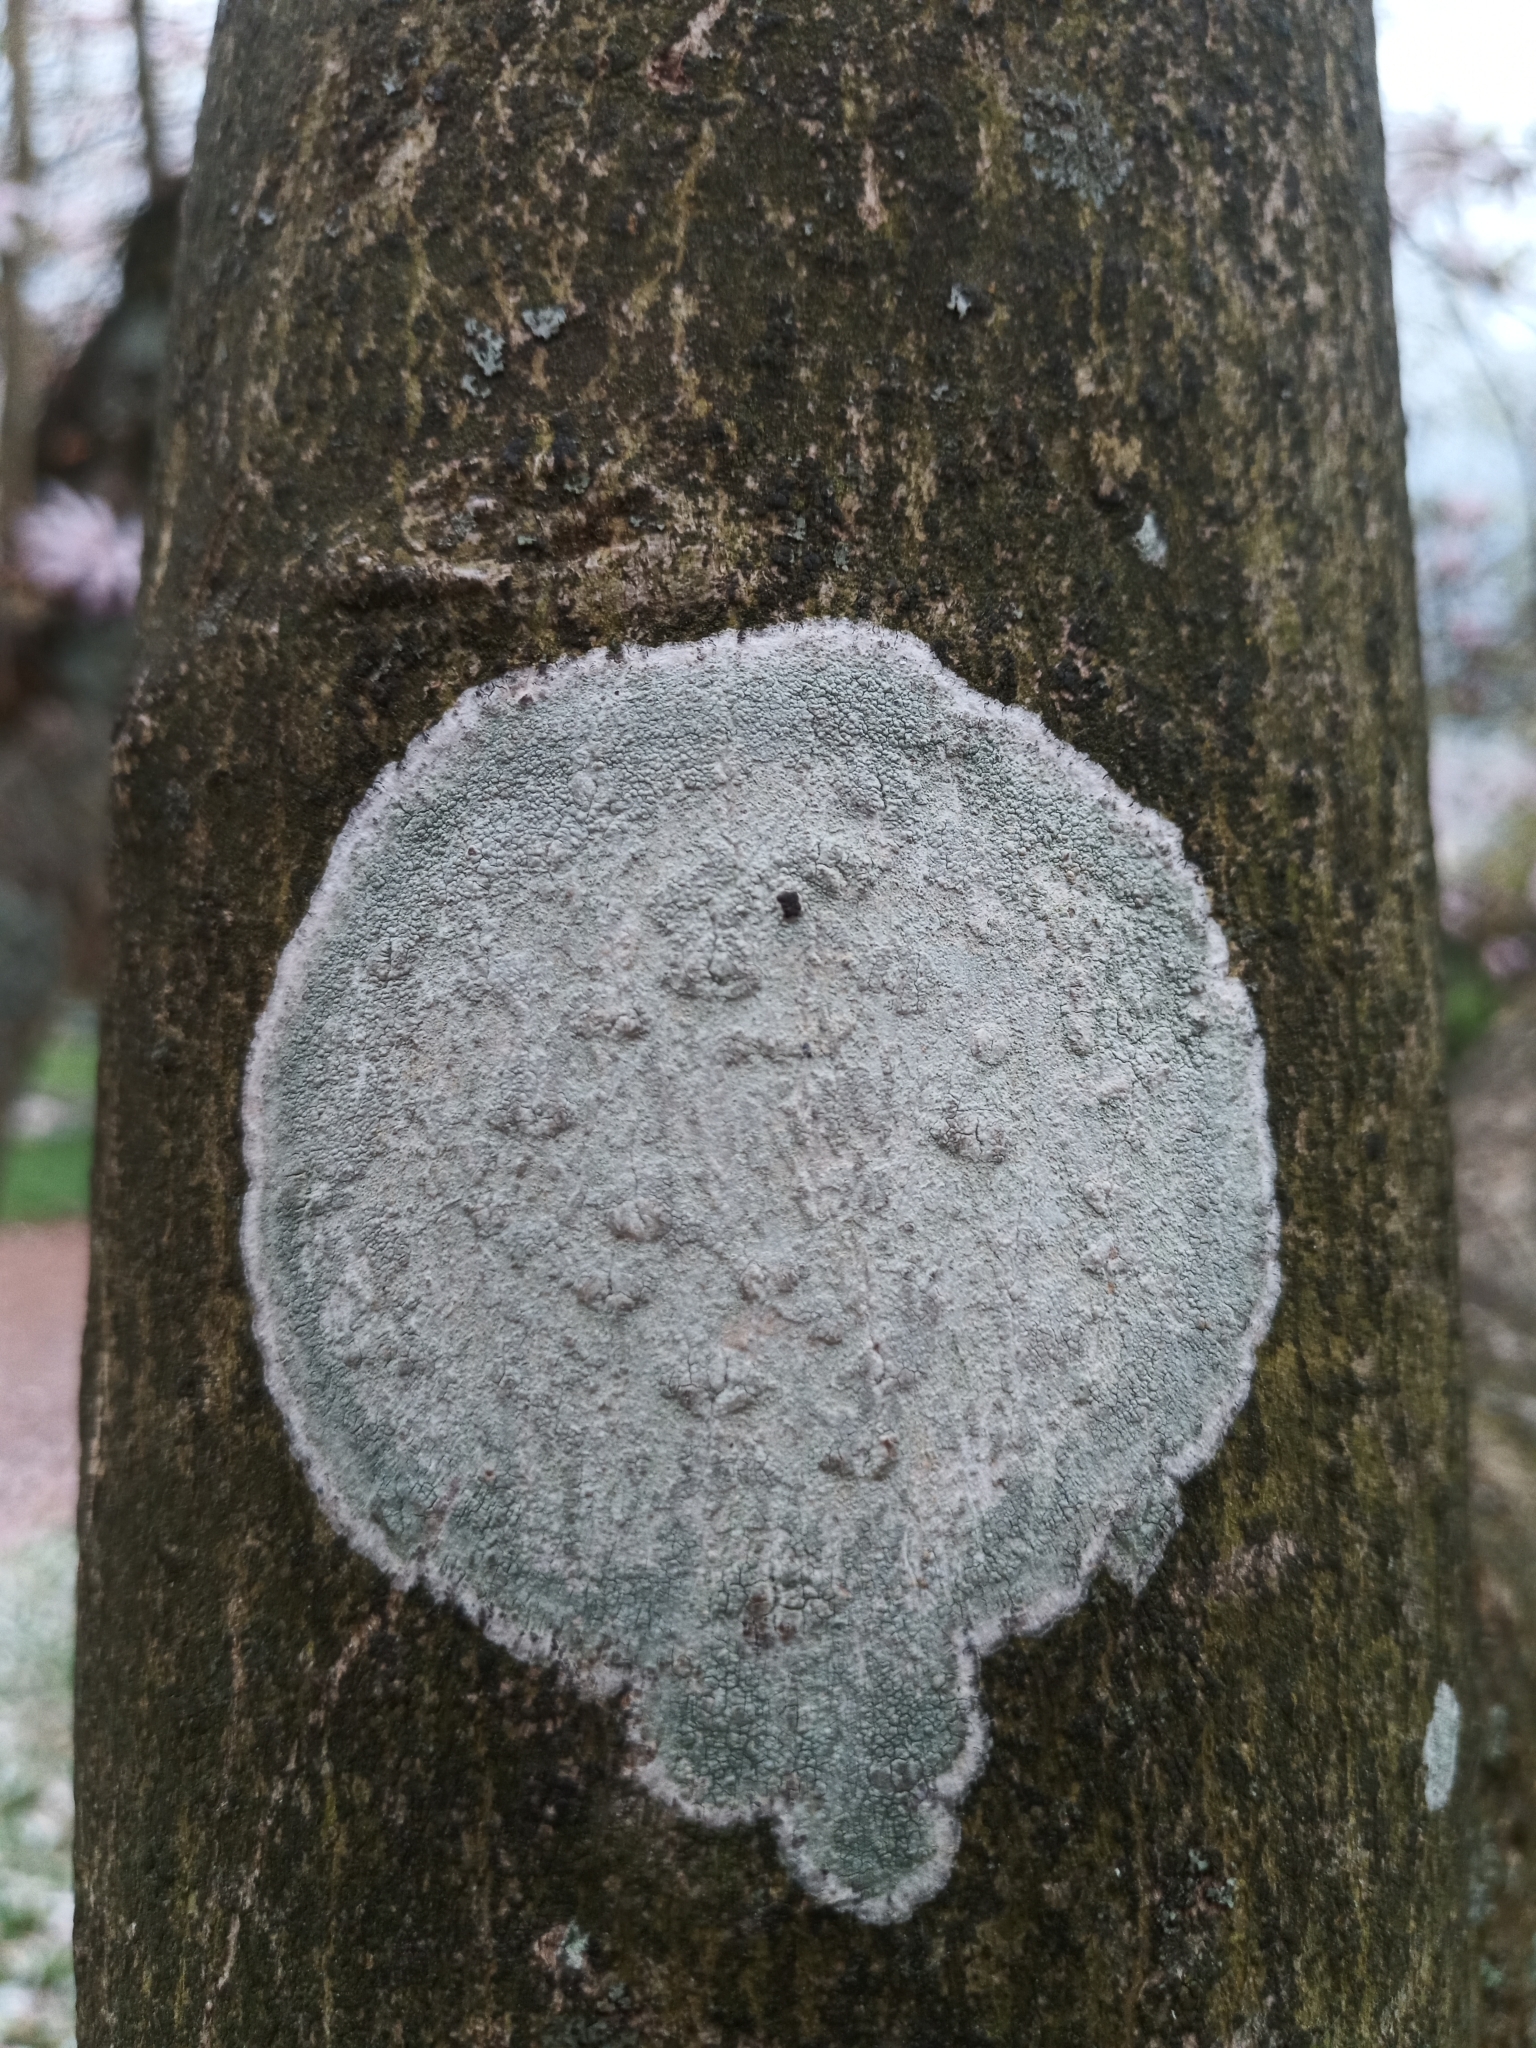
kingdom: Fungi
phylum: Ascomycota
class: Lecanoromycetes
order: Ostropales
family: Phlyctidaceae
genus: Phlyctis
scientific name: Phlyctis argena
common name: Whitewash lichen
